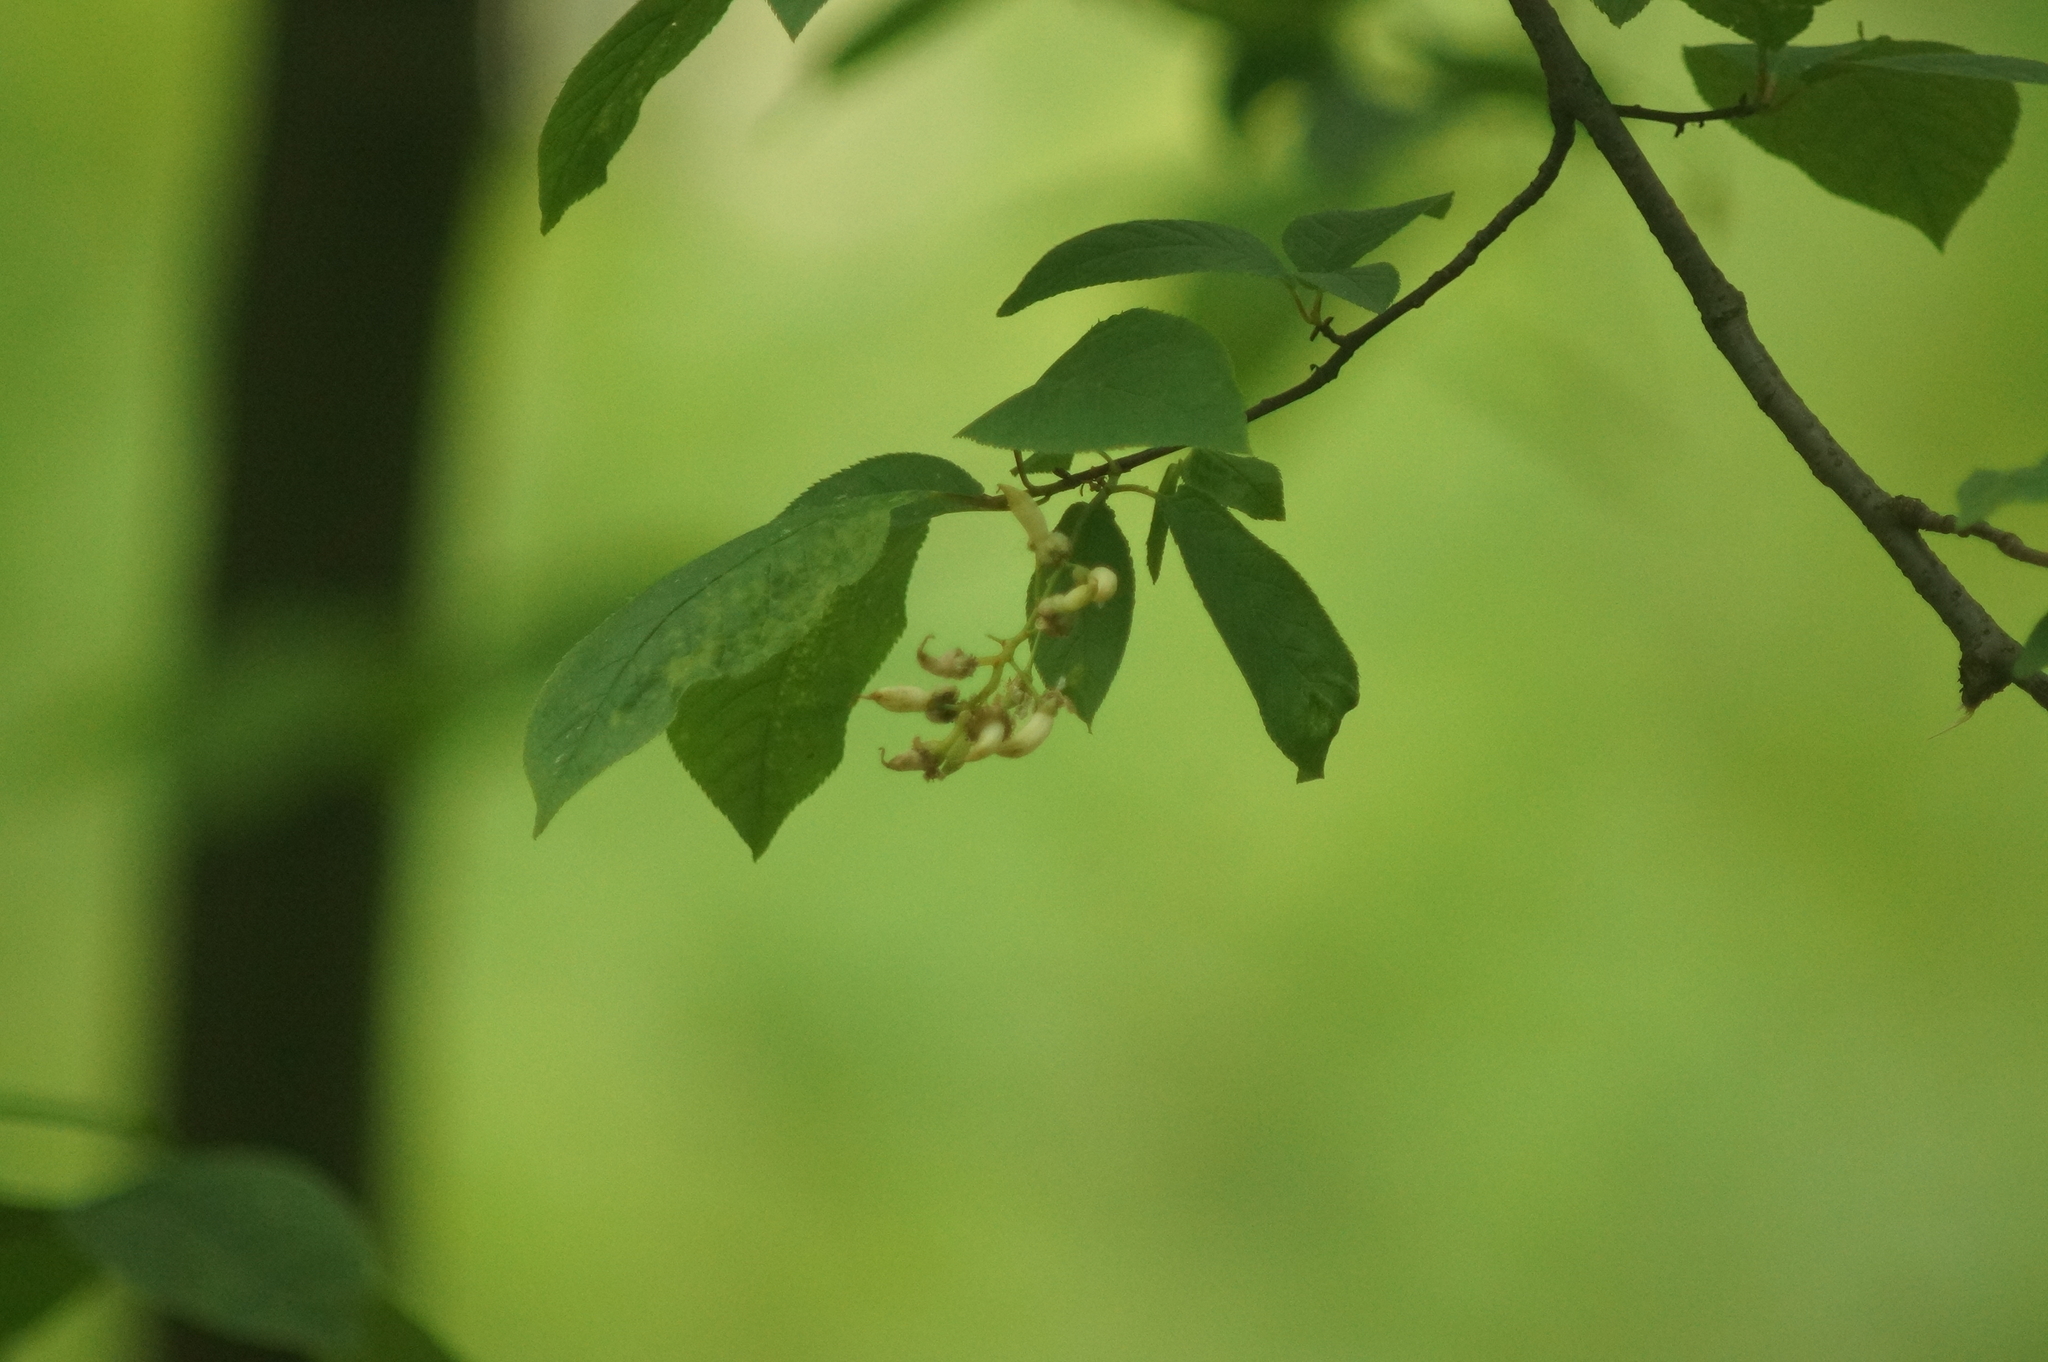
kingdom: Fungi
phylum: Ascomycota
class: Taphrinomycetes
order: Taphrinales
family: Taphrinaceae
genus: Taphrina
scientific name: Taphrina padi
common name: Bird cherry pocket
